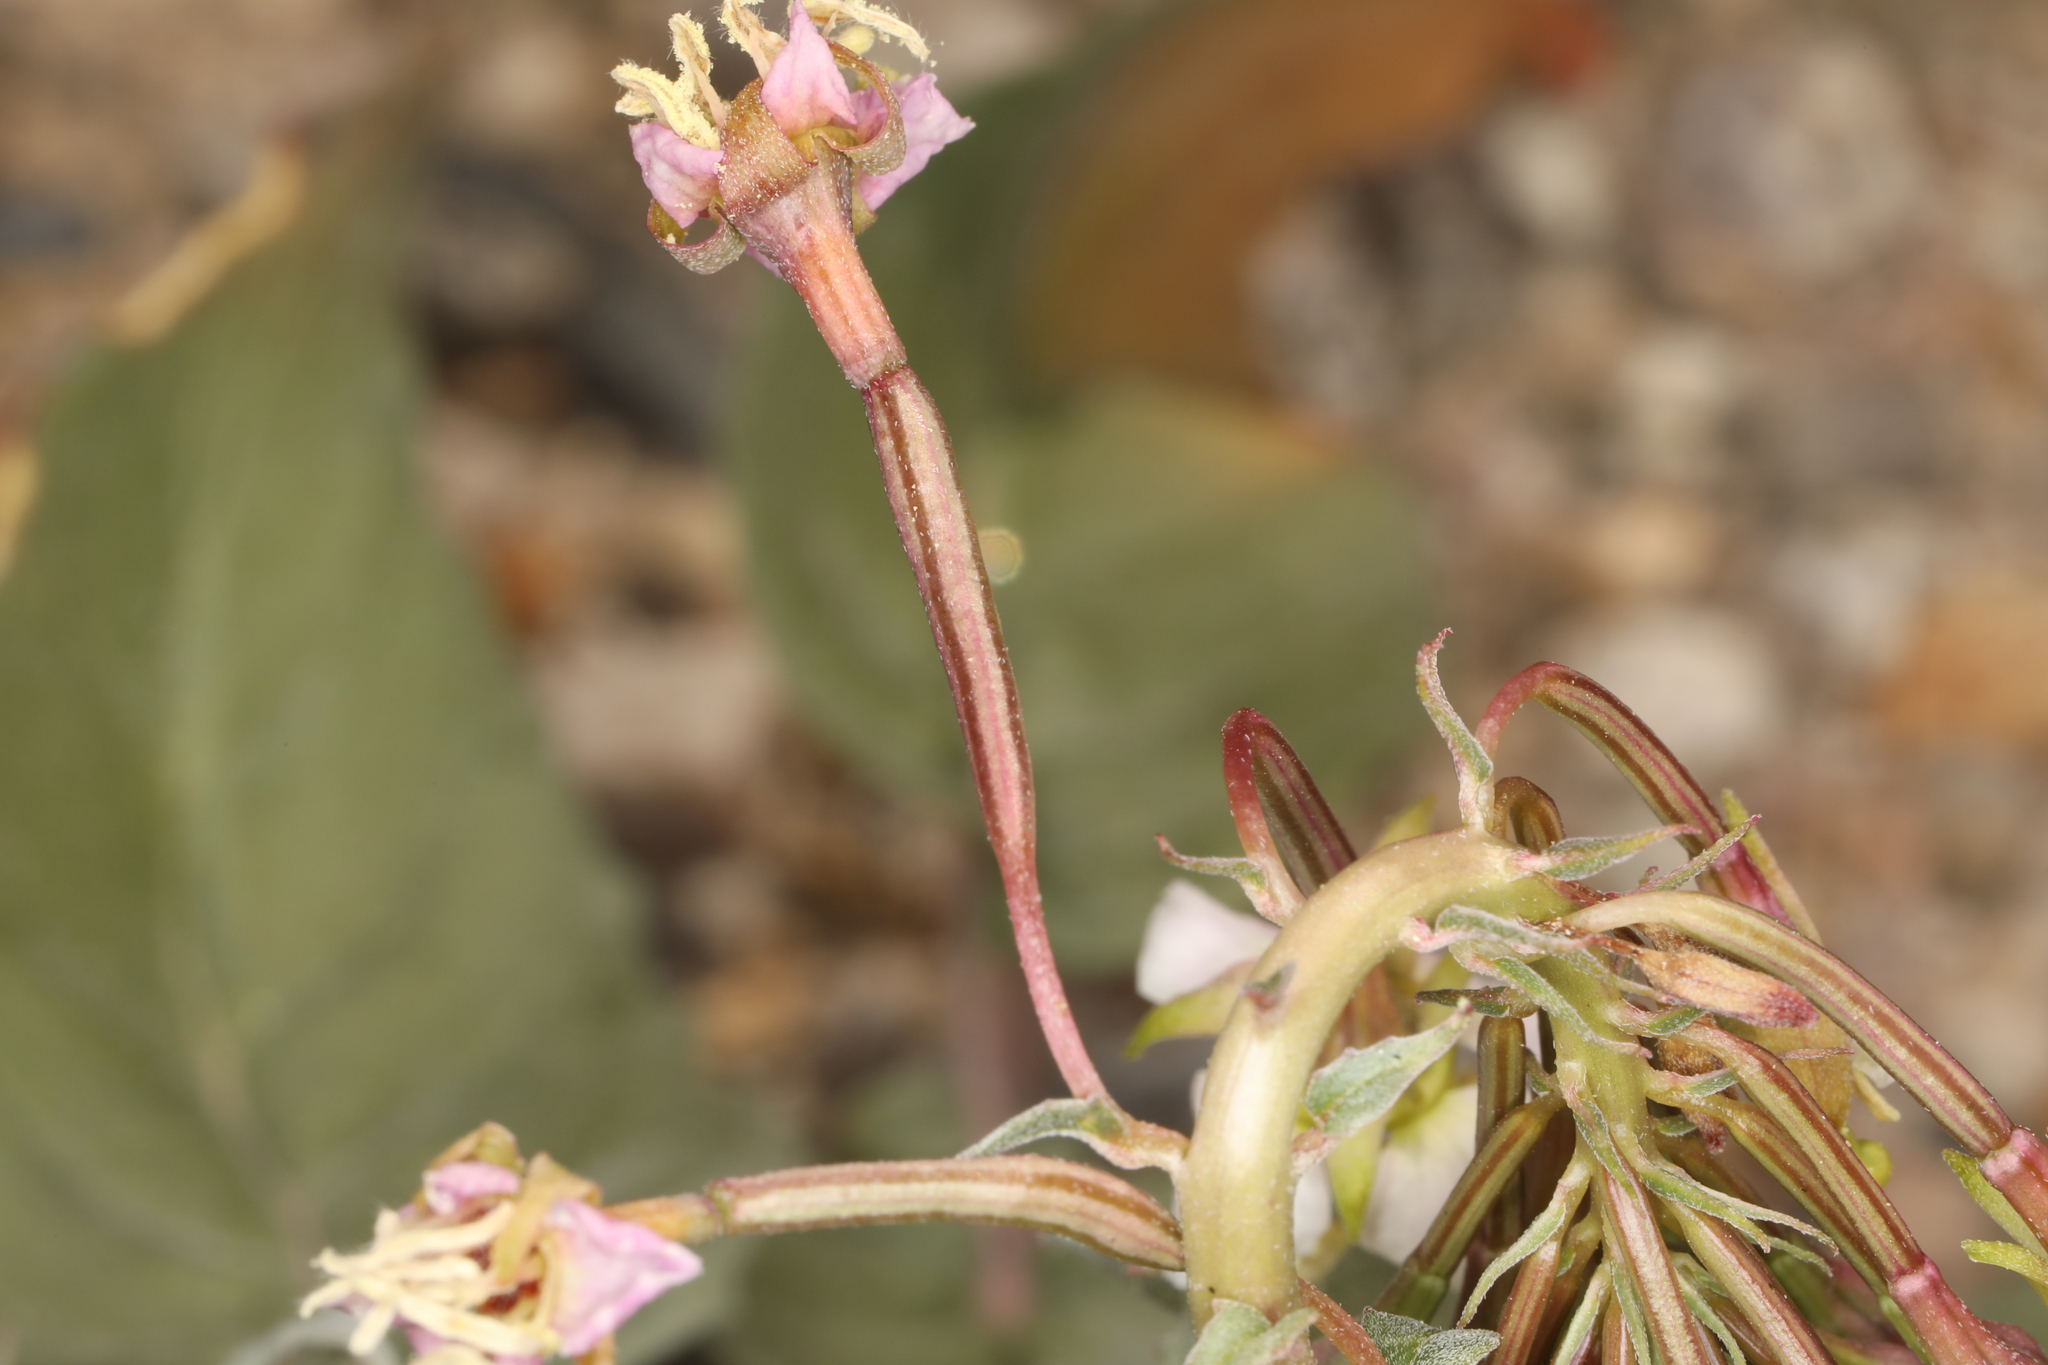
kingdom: Plantae
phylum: Tracheophyta
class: Magnoliopsida
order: Myrtales
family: Onagraceae
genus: Chylismia
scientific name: Chylismia claviformis
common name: Browneyes
